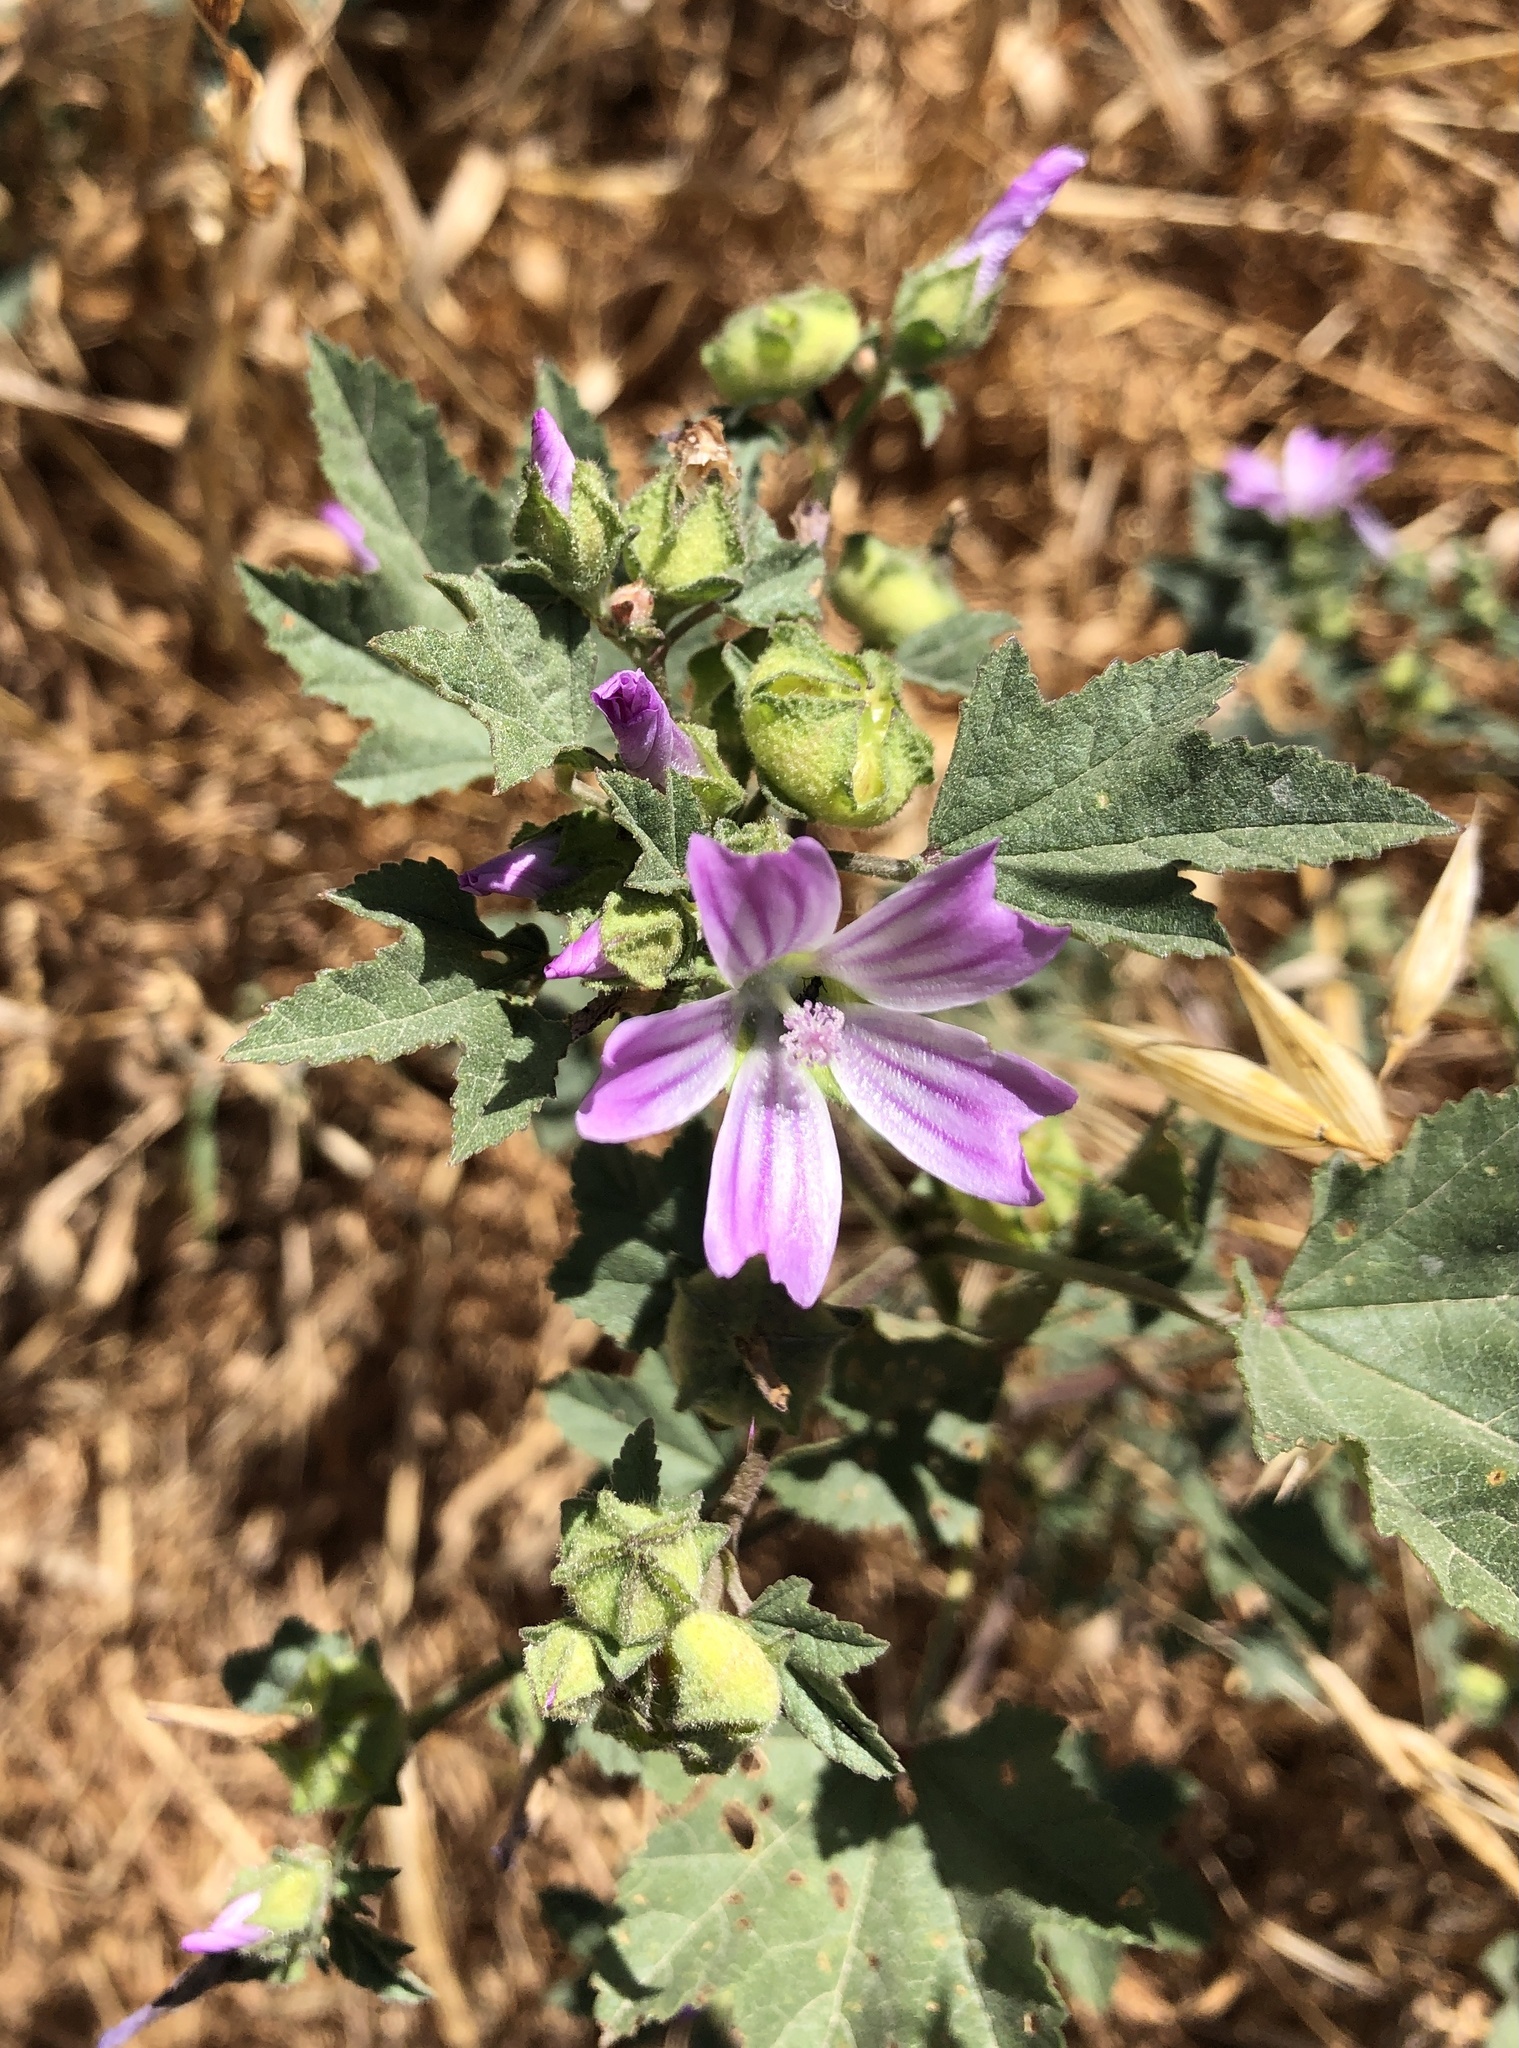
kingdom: Plantae
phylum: Tracheophyta
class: Magnoliopsida
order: Malvales
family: Malvaceae
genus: Malva
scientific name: Malva multiflora
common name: Cheeseweed
